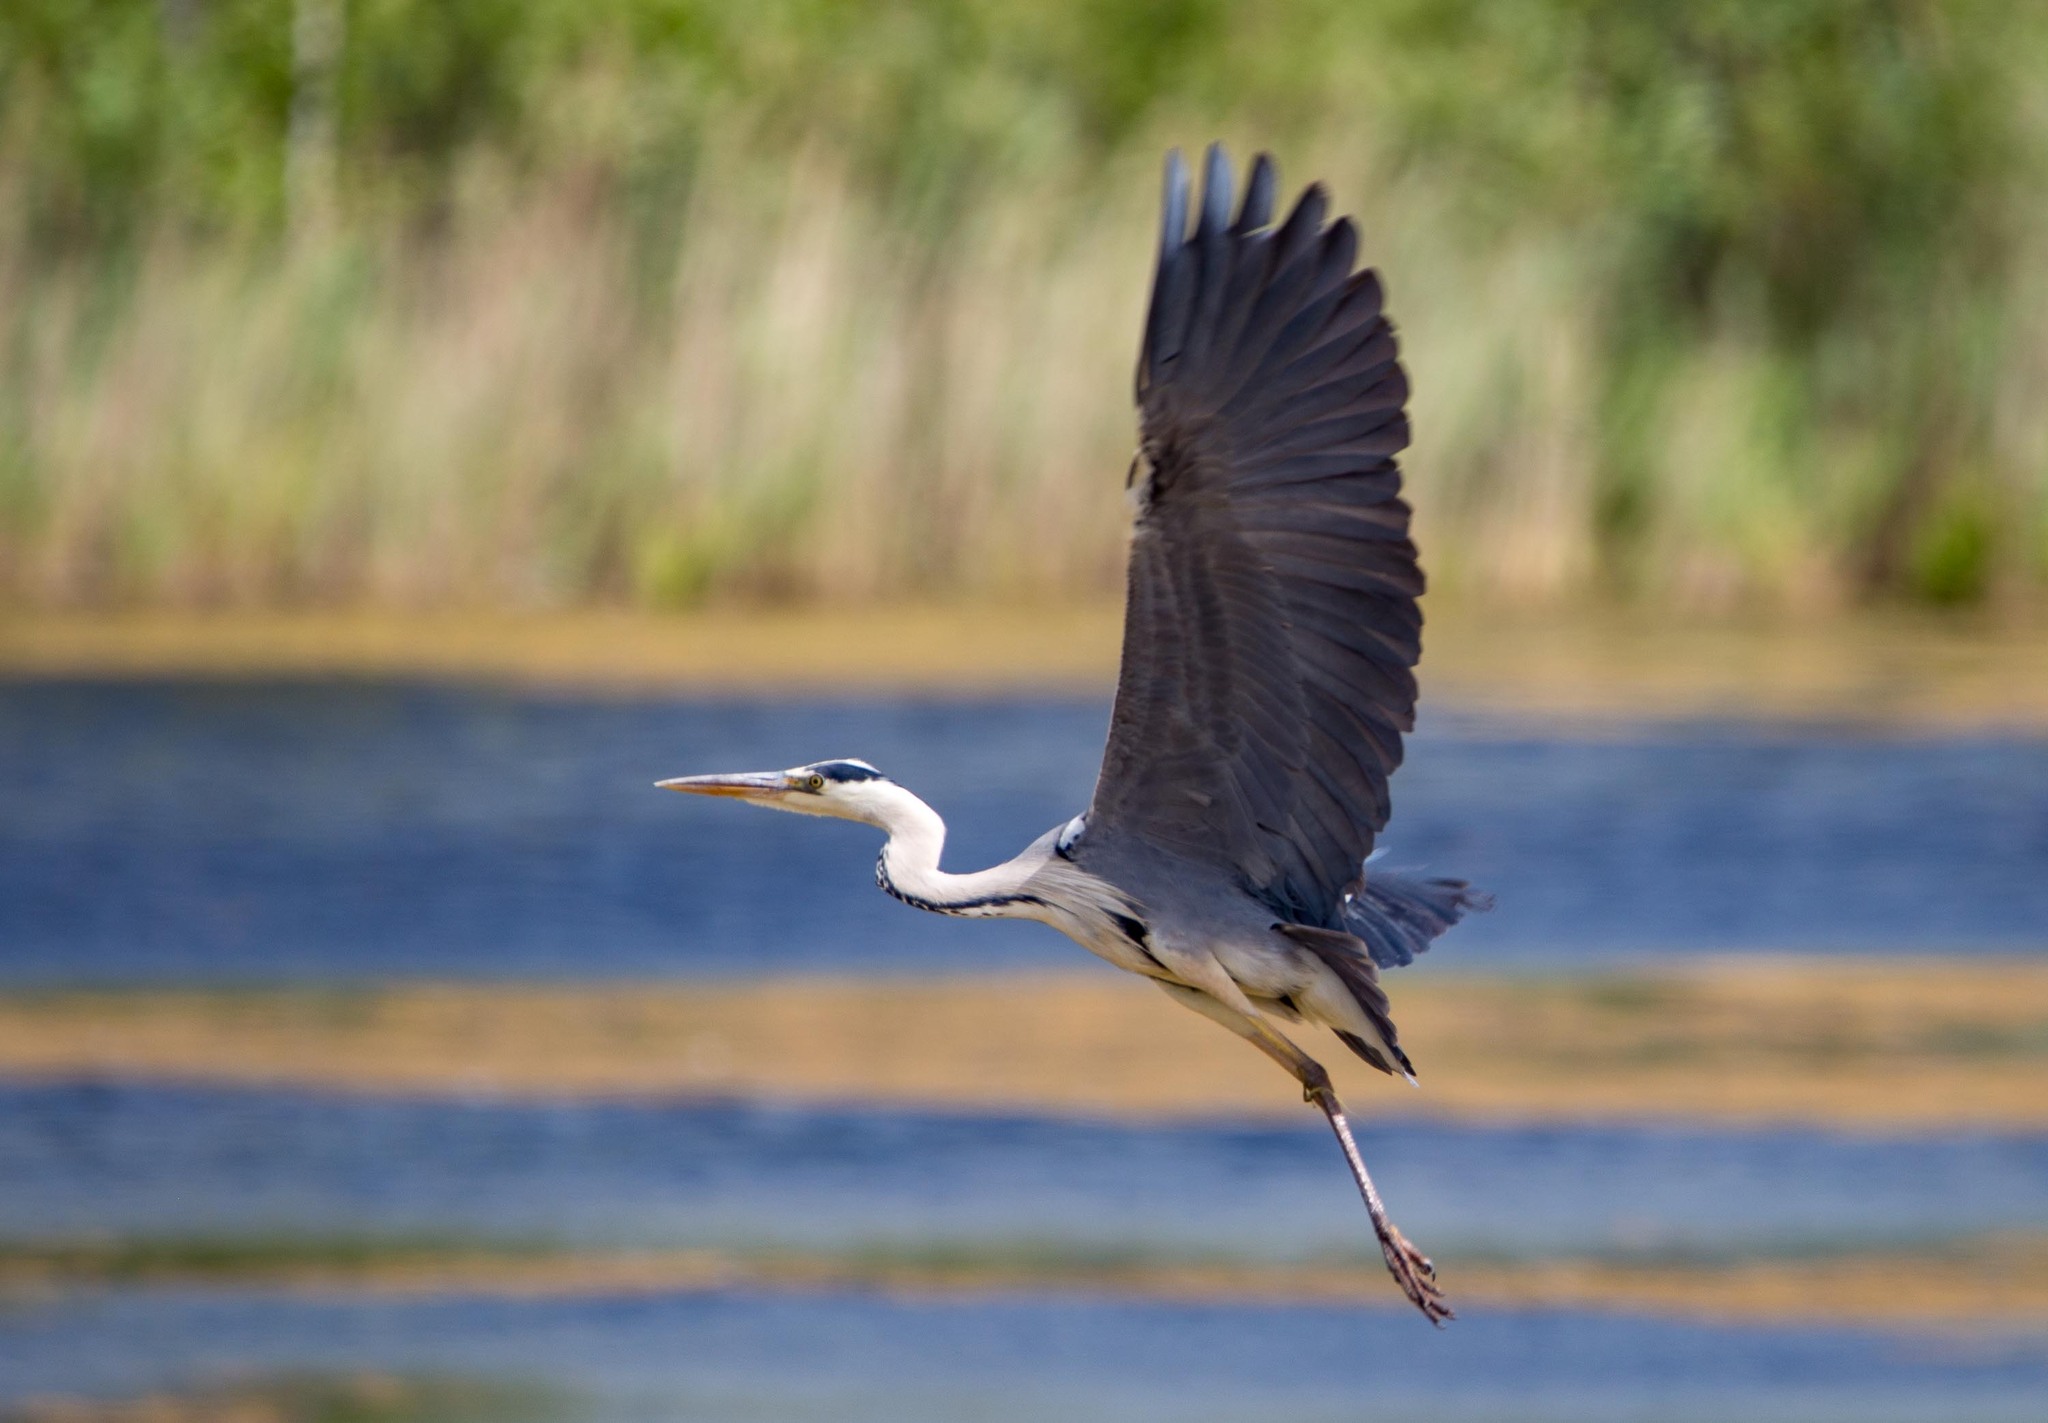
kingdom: Animalia
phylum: Chordata
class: Aves
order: Pelecaniformes
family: Ardeidae
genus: Ardea
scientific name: Ardea cinerea
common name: Grey heron
